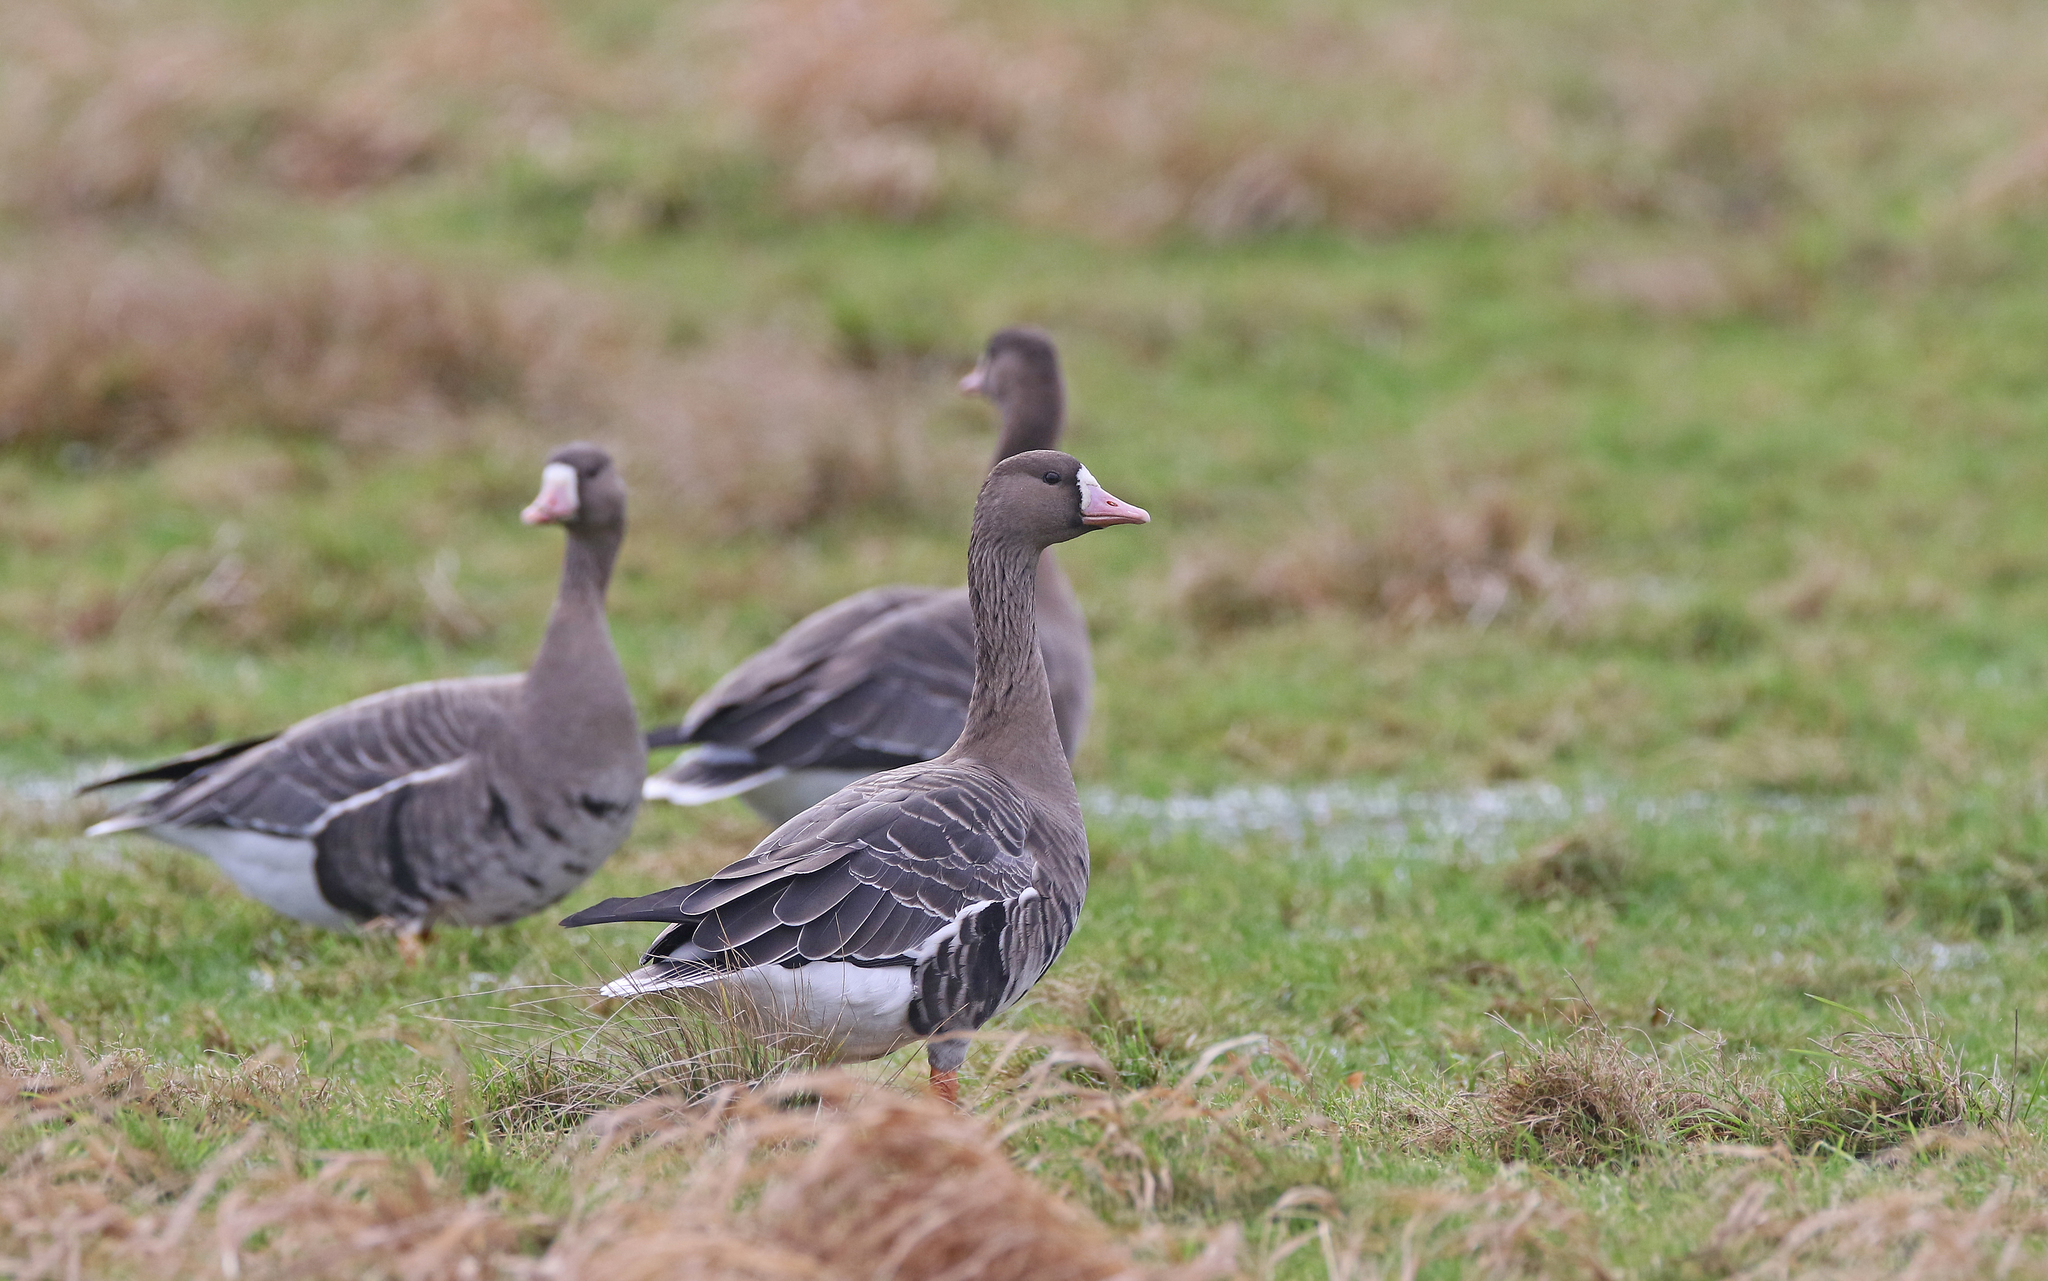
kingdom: Animalia
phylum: Chordata
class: Aves
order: Anseriformes
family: Anatidae
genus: Anser
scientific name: Anser albifrons
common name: Greater white-fronted goose
